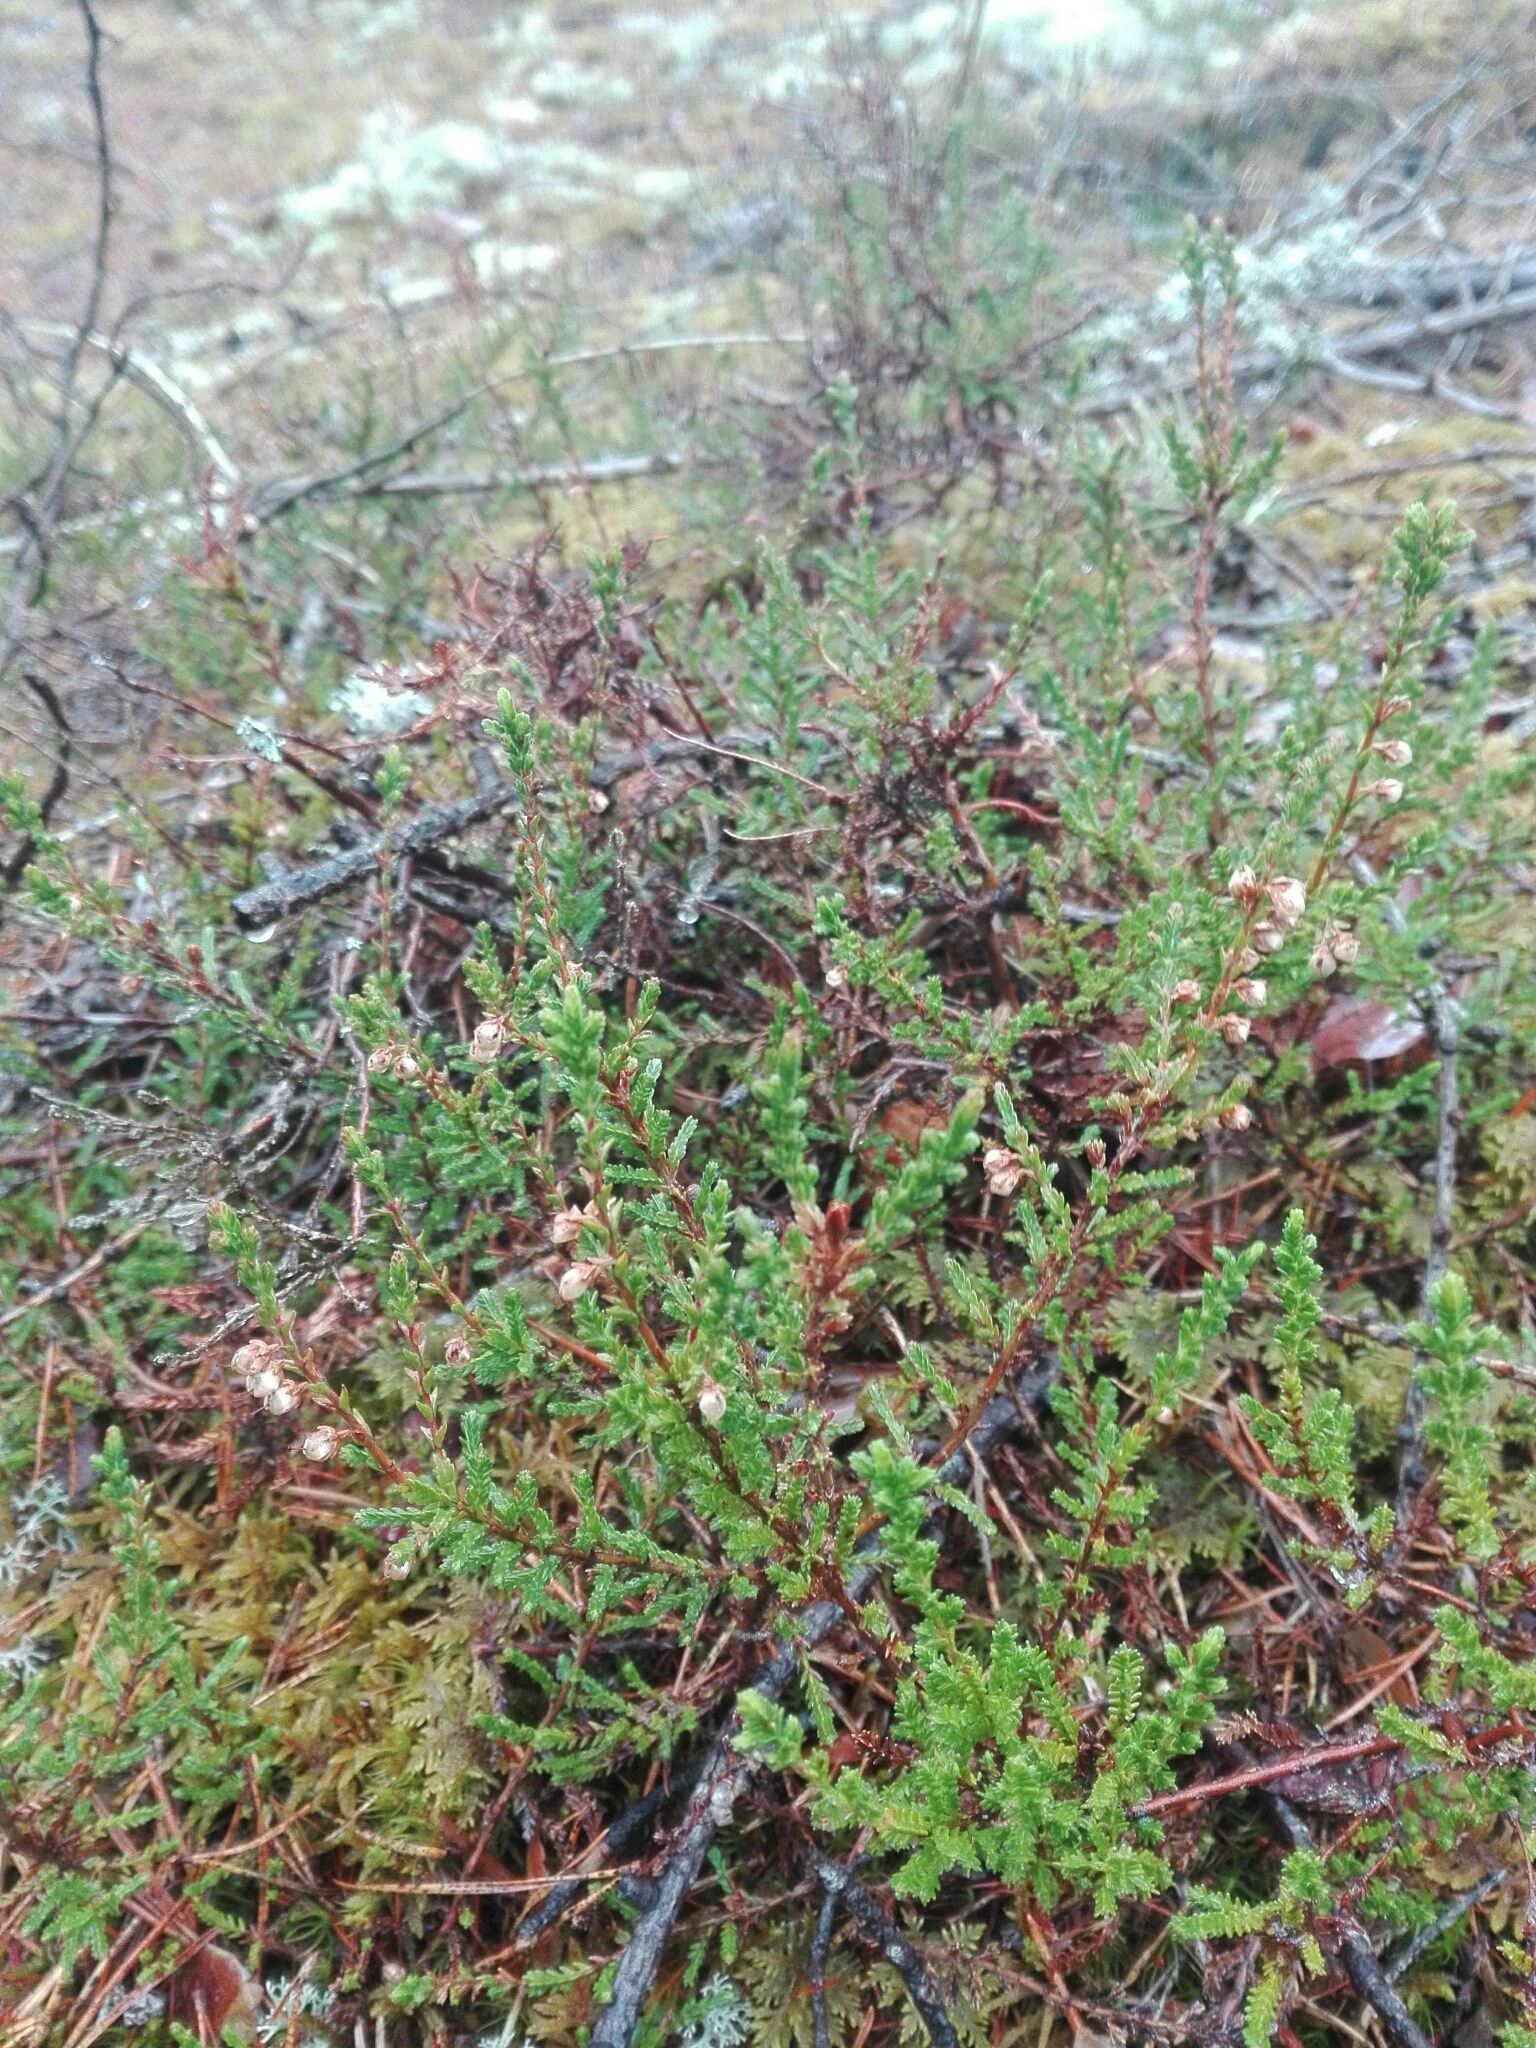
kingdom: Plantae
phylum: Tracheophyta
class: Magnoliopsida
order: Ericales
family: Ericaceae
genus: Calluna
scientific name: Calluna vulgaris
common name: Heather
